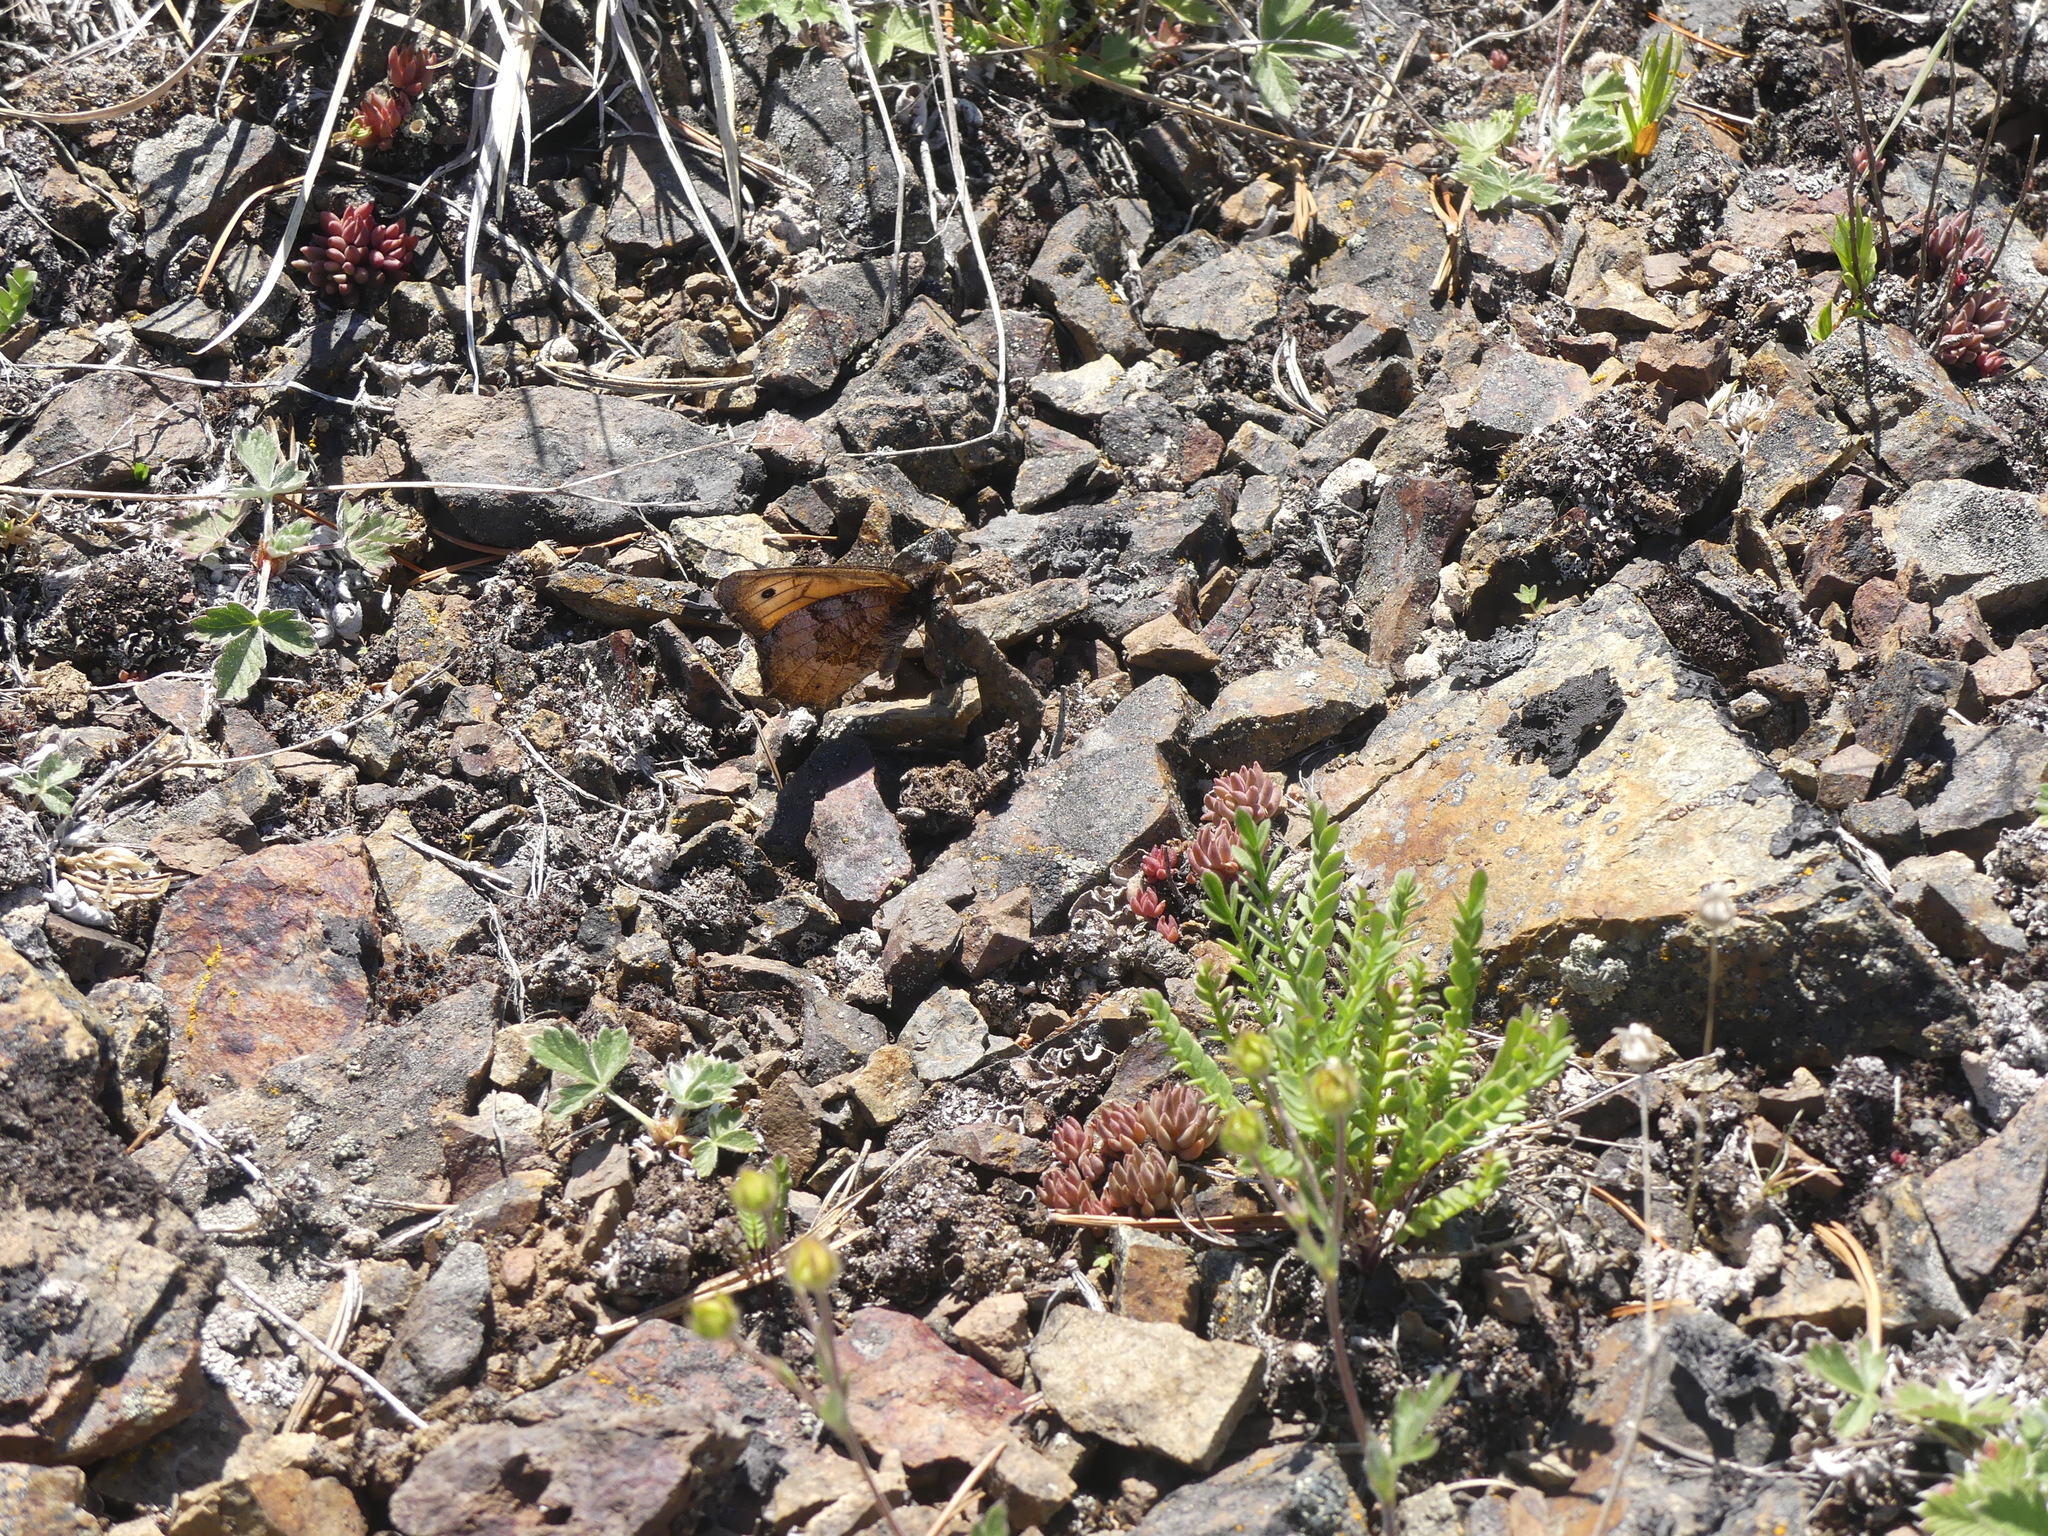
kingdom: Animalia
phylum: Arthropoda
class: Insecta
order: Lepidoptera
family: Nymphalidae
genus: Oeneis
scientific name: Oeneis macounii
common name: Macoun's arctic
